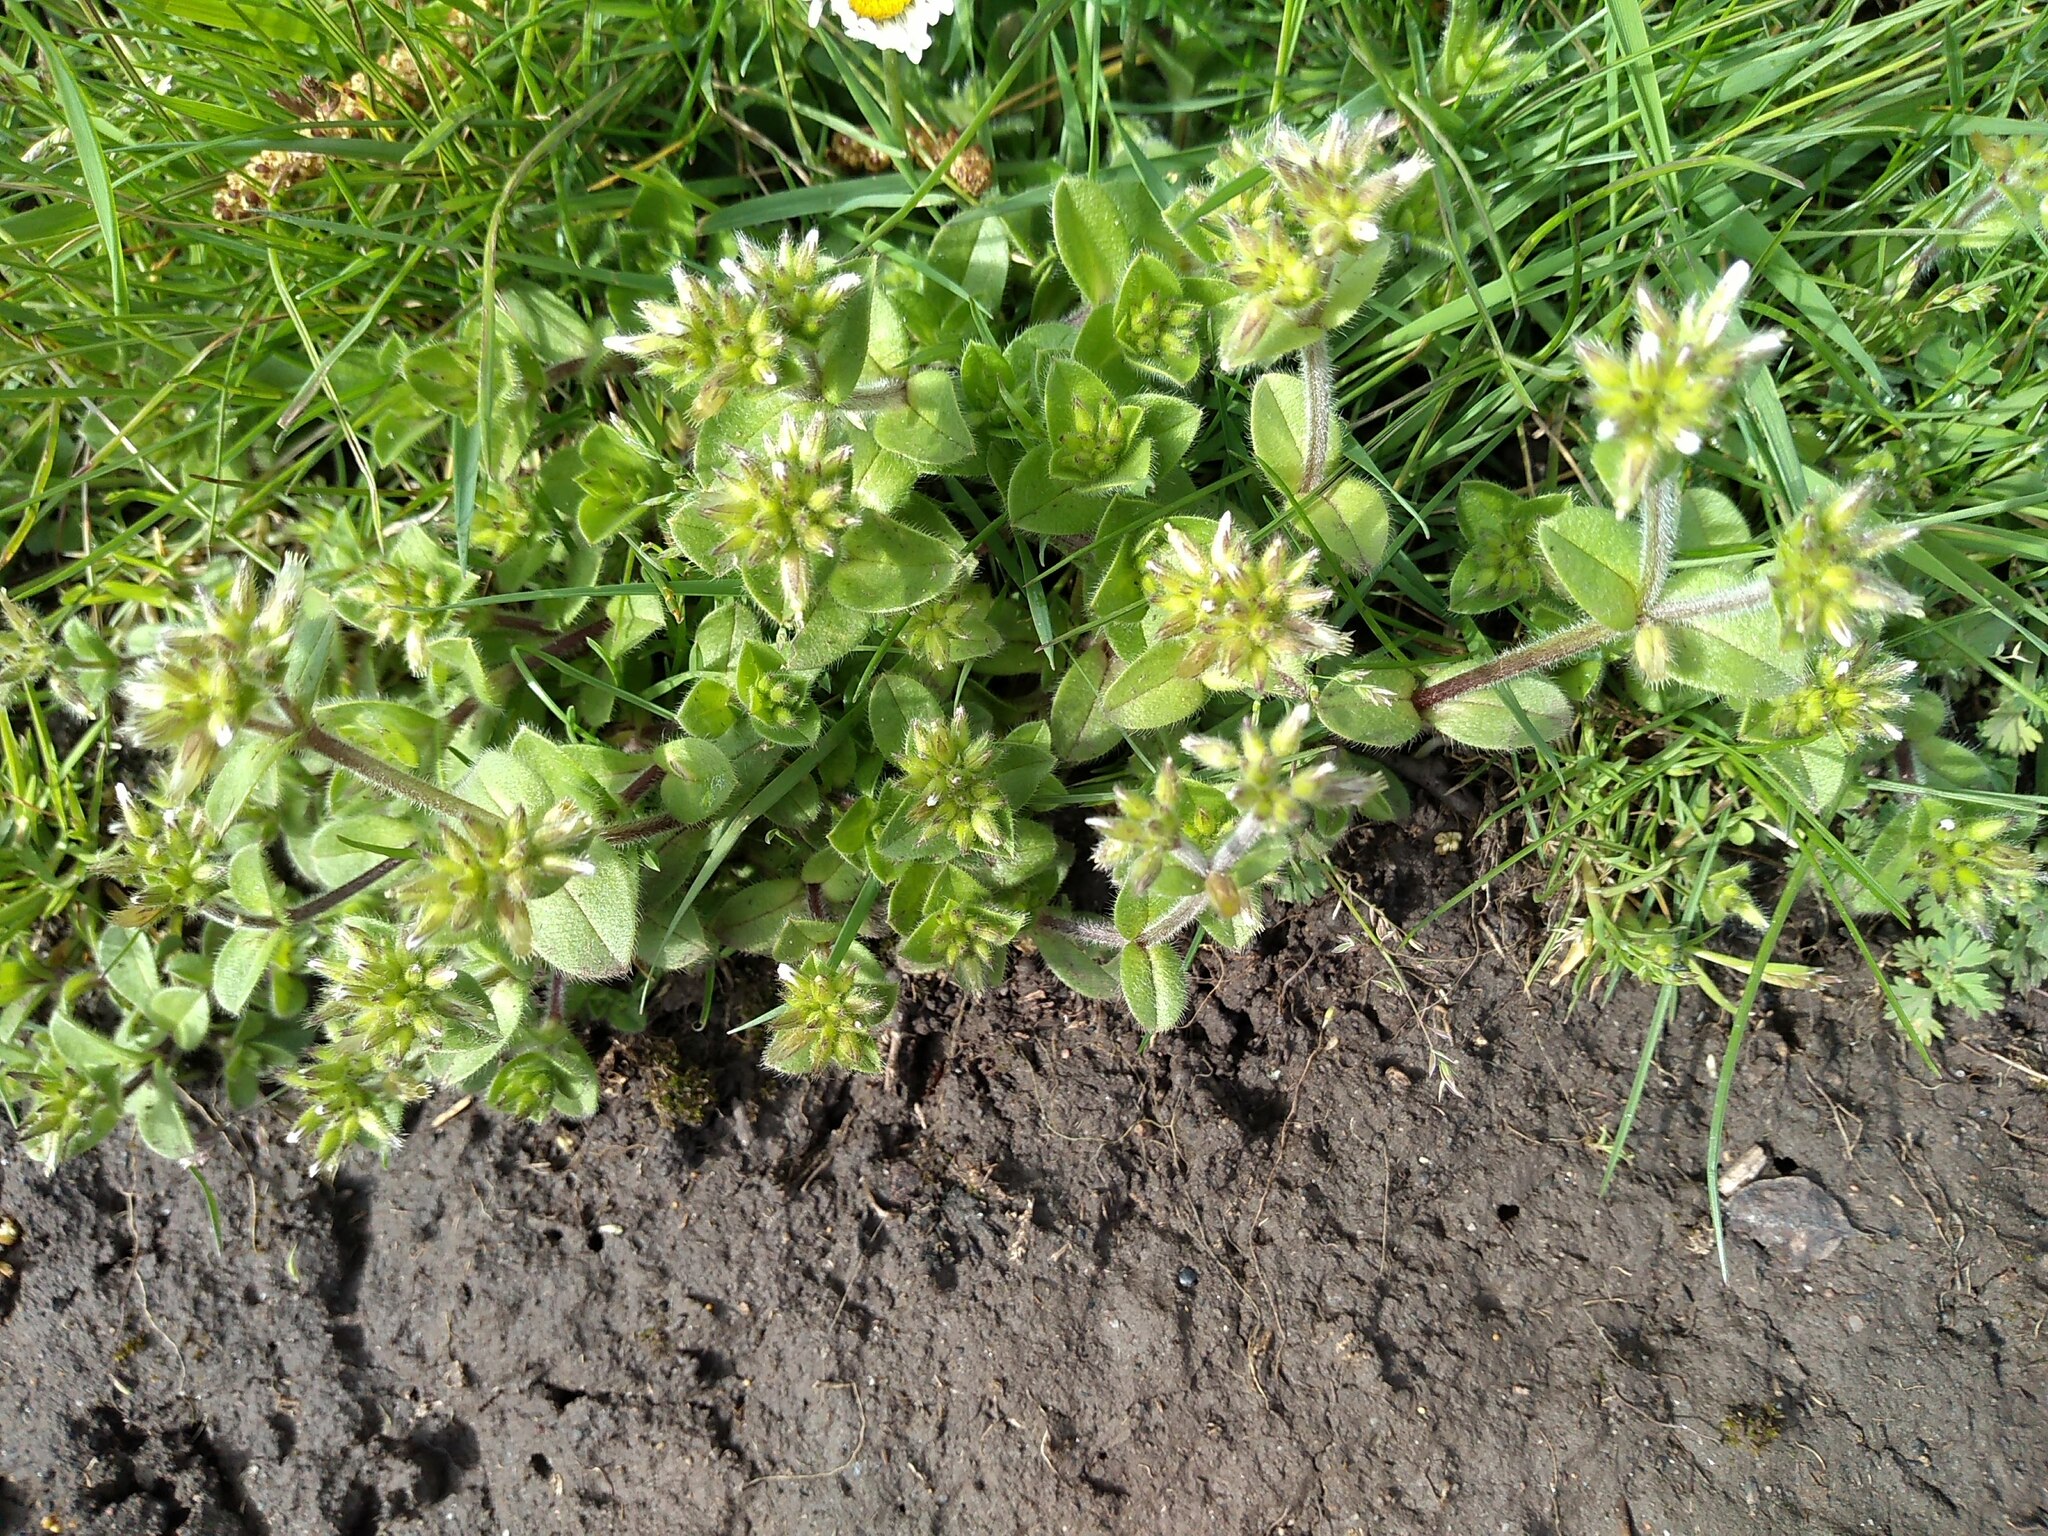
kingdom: Plantae
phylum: Tracheophyta
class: Magnoliopsida
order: Caryophyllales
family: Caryophyllaceae
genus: Cerastium
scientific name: Cerastium glomeratum
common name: Sticky chickweed
